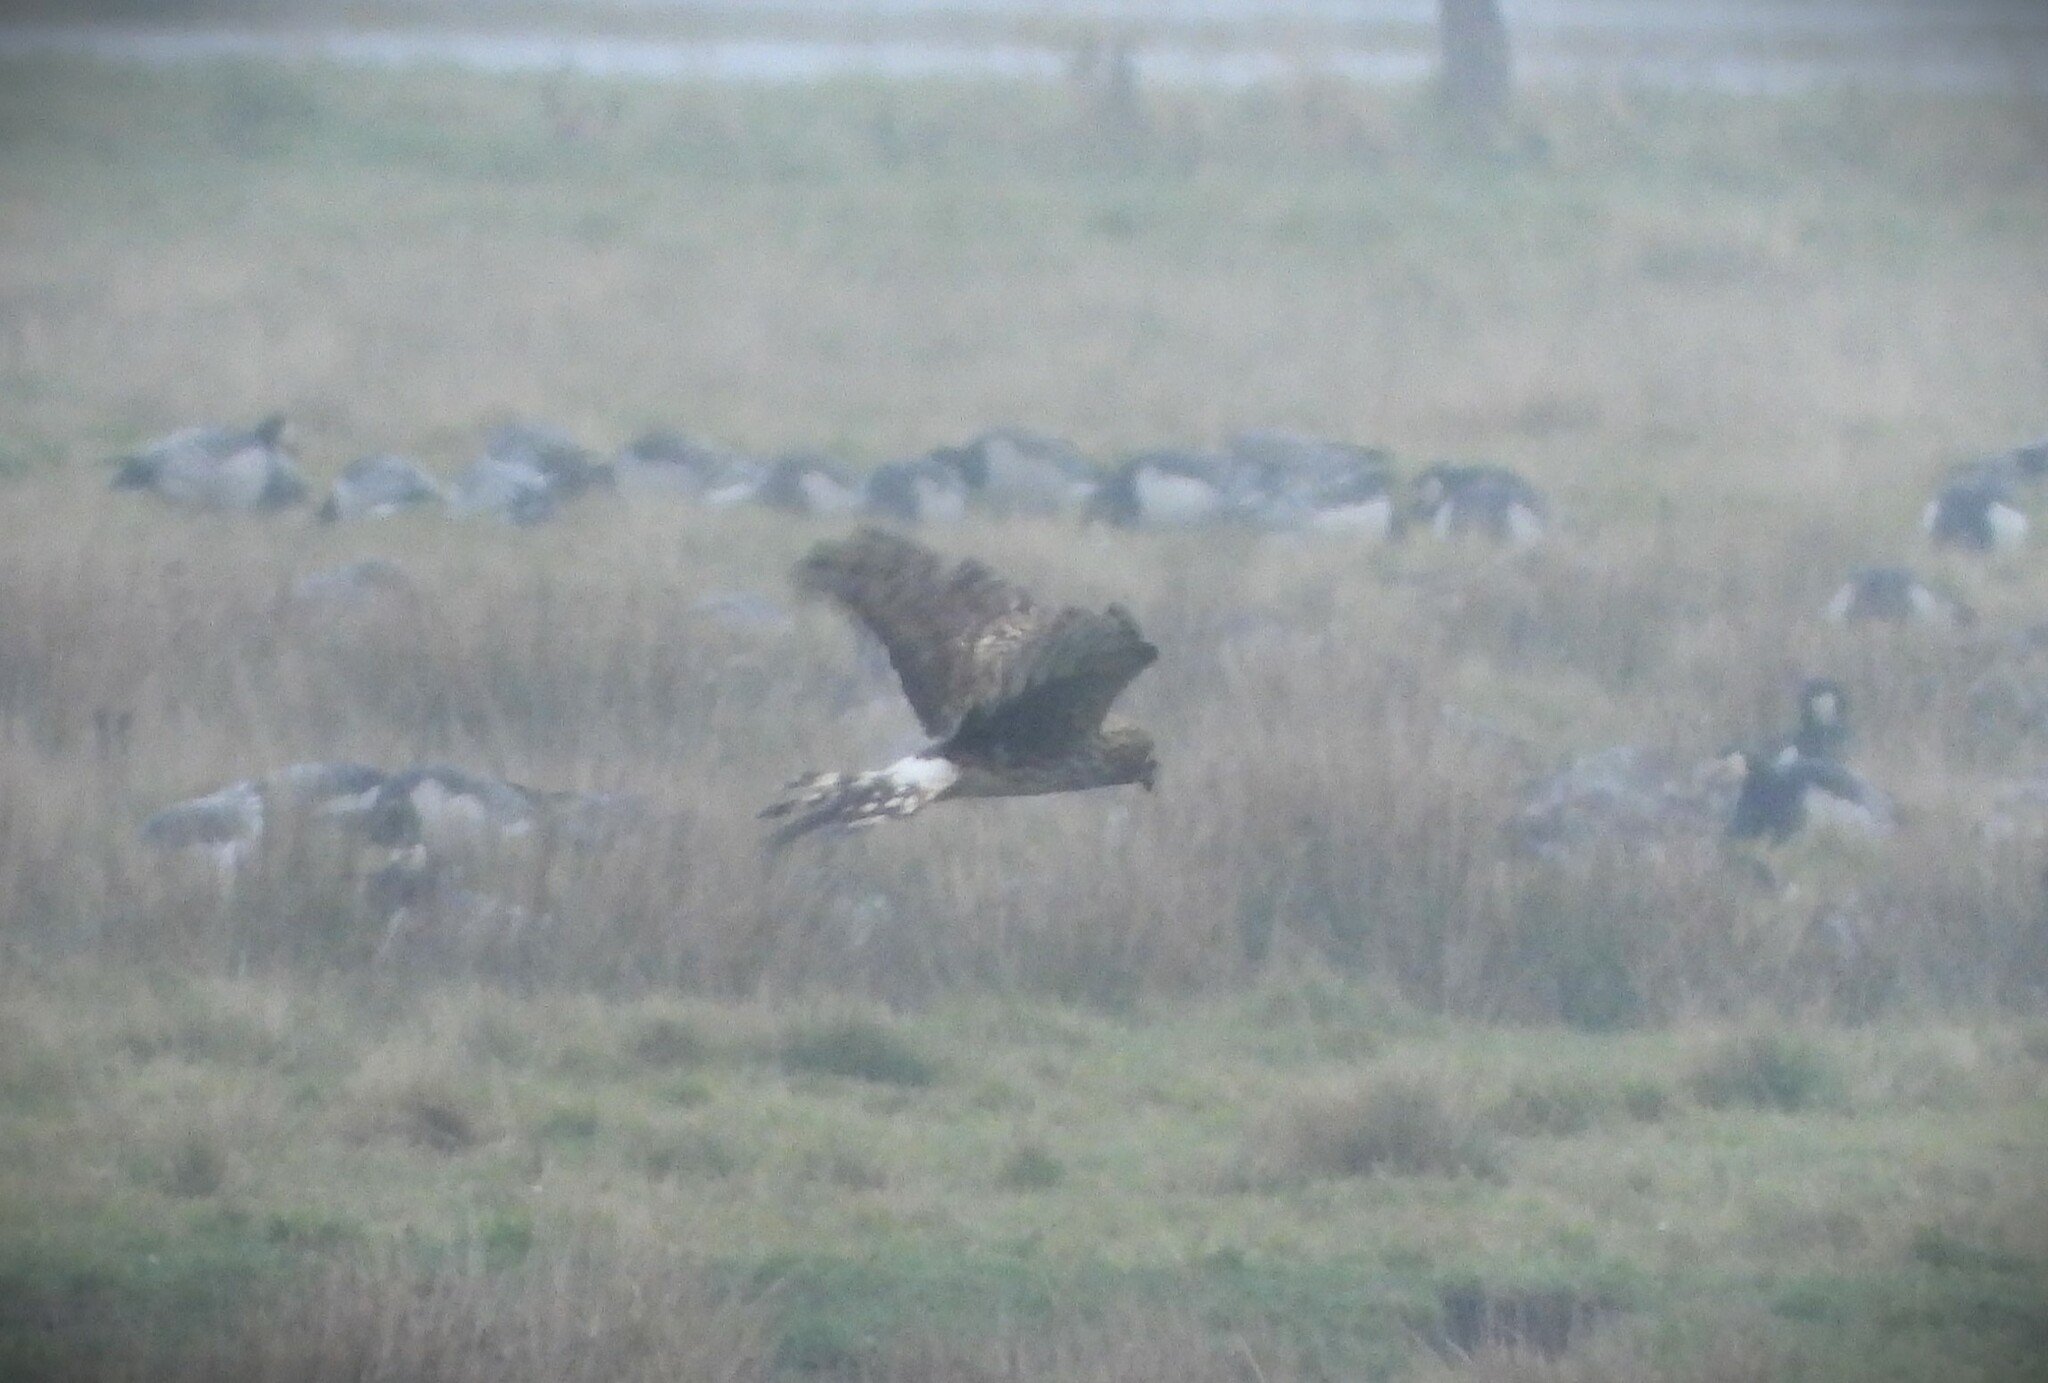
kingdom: Animalia
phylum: Chordata
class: Aves
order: Accipitriformes
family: Accipitridae
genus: Circus
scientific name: Circus cyaneus
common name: Hen harrier
